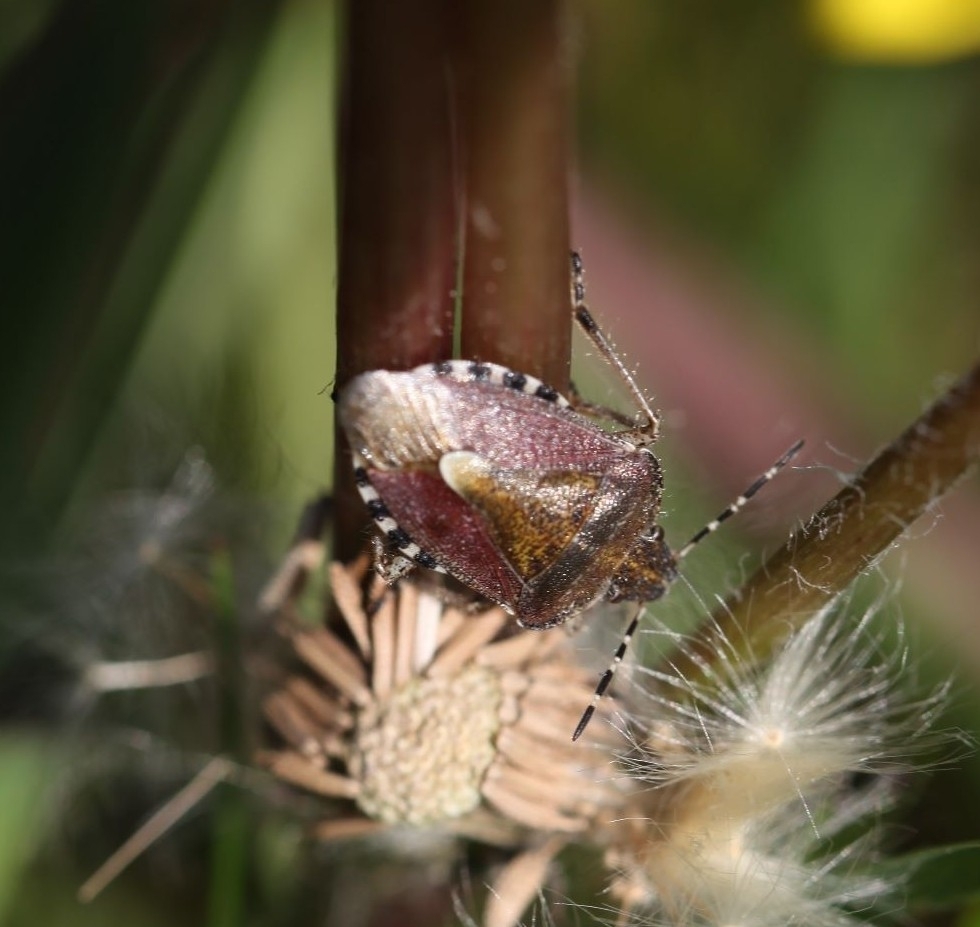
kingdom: Animalia
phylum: Arthropoda
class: Insecta
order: Hemiptera
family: Pentatomidae
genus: Dolycoris
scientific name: Dolycoris baccarum
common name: Sloe bug
